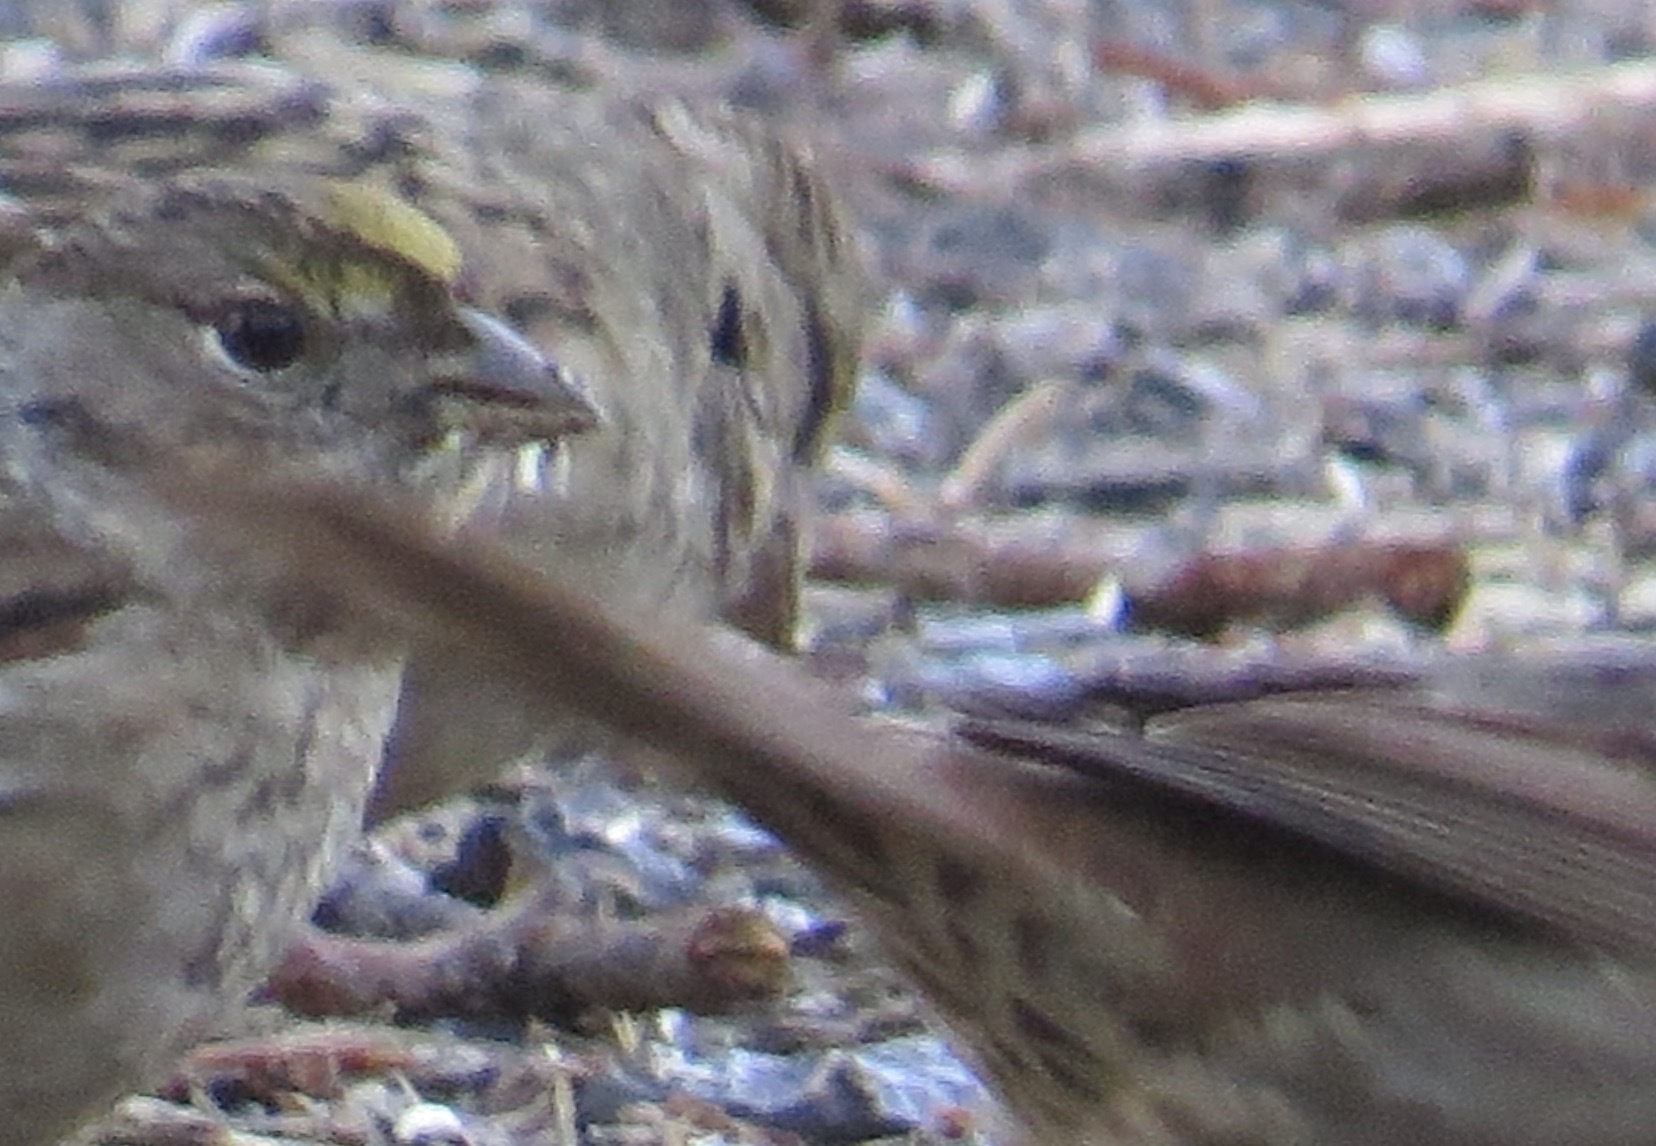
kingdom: Animalia
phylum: Chordata
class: Aves
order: Passeriformes
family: Passerellidae
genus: Zonotrichia
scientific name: Zonotrichia atricapilla
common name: Golden-crowned sparrow
